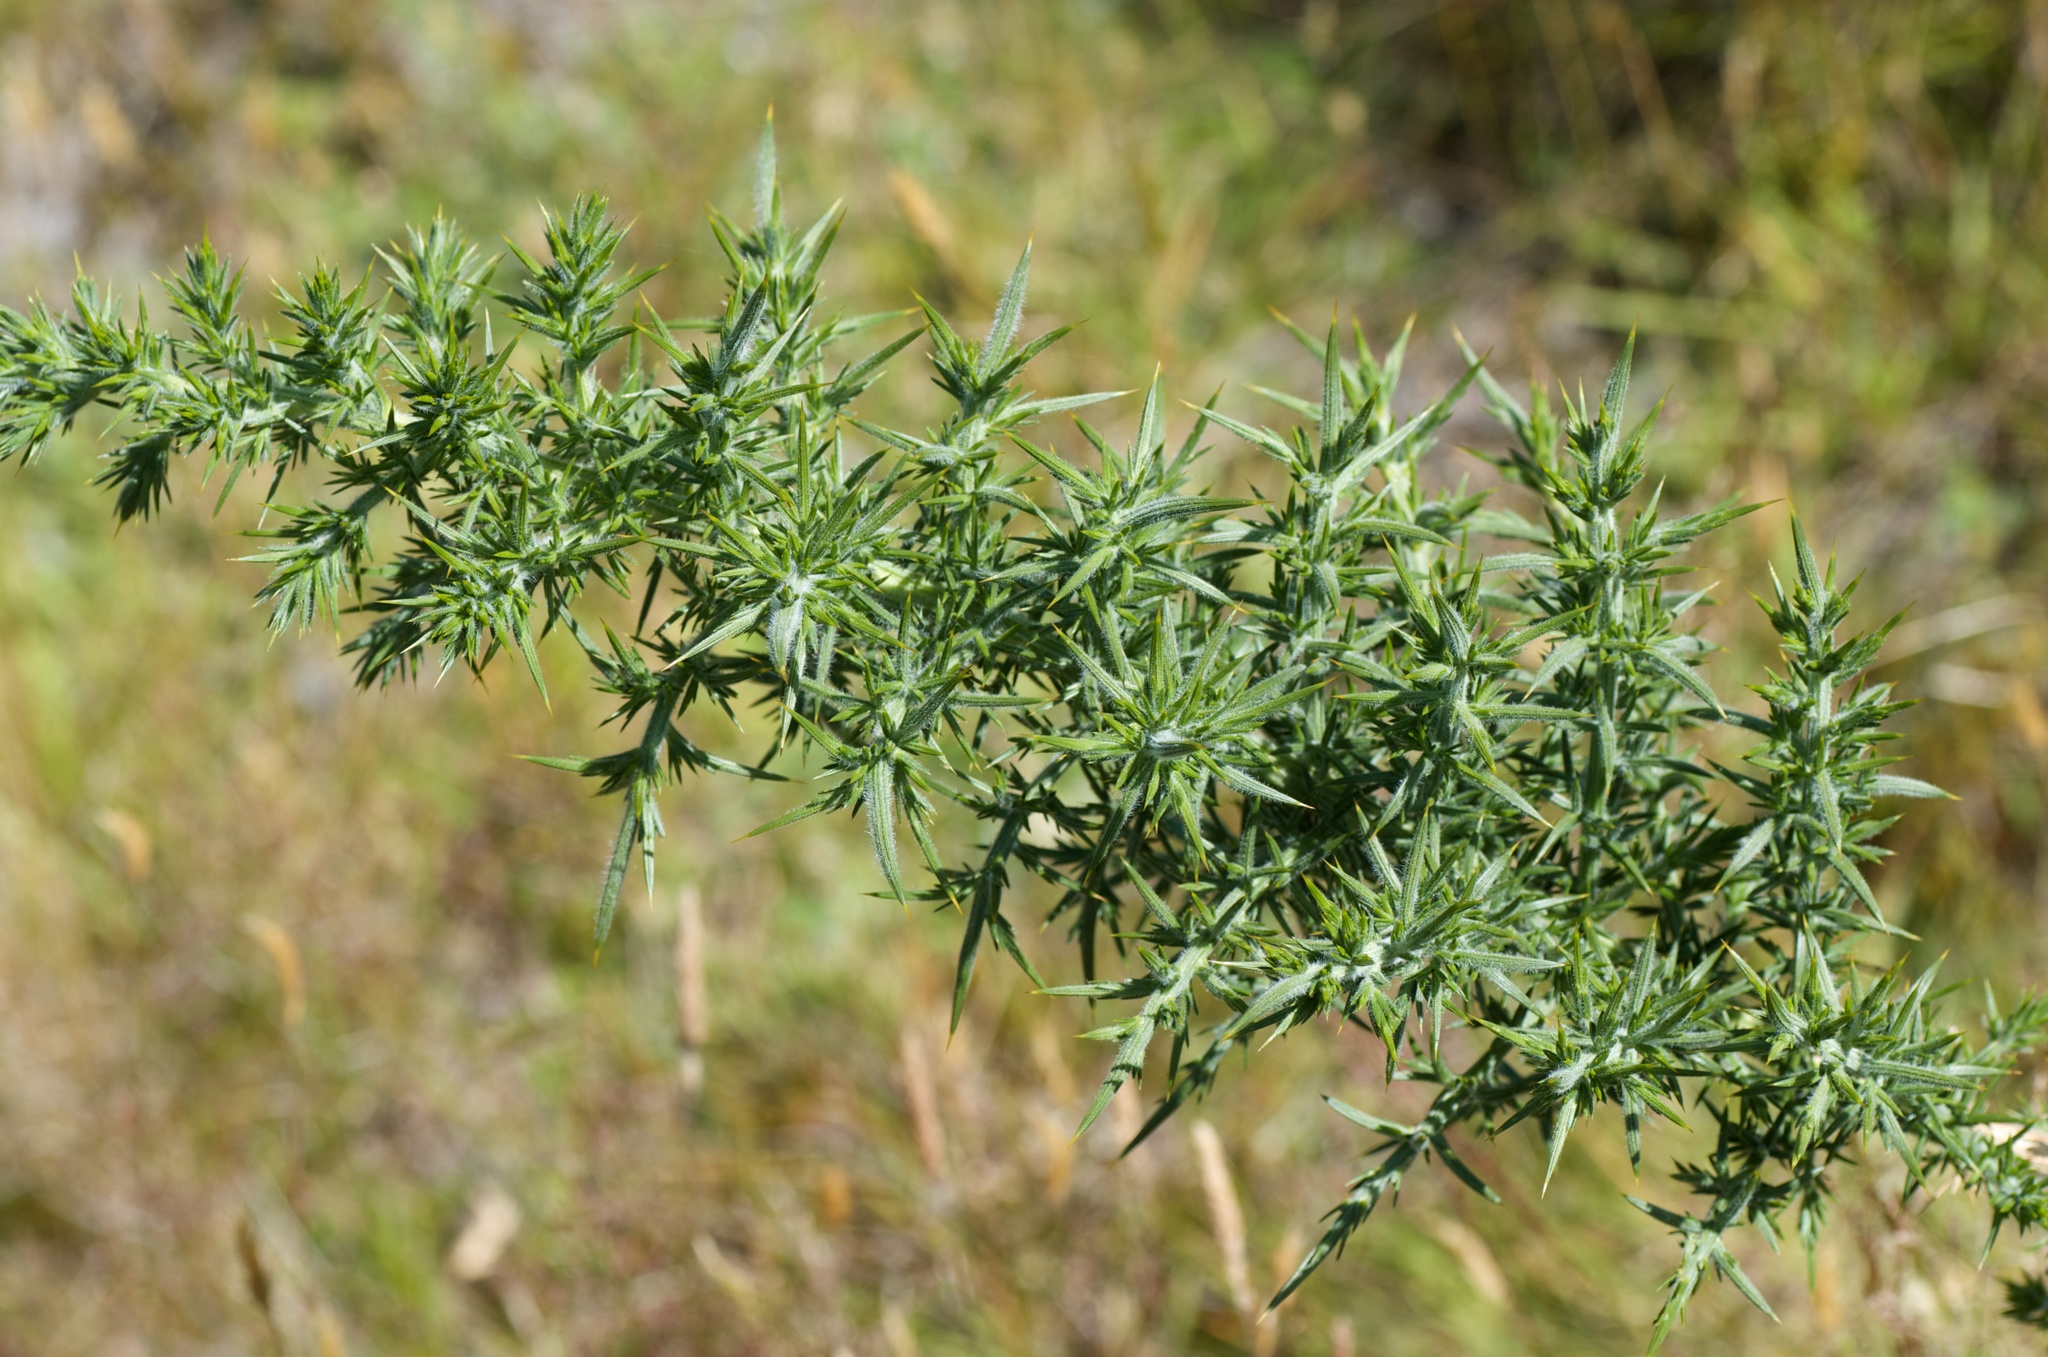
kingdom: Plantae
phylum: Tracheophyta
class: Magnoliopsida
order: Fabales
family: Fabaceae
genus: Ulex
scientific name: Ulex europaeus
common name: Common gorse
